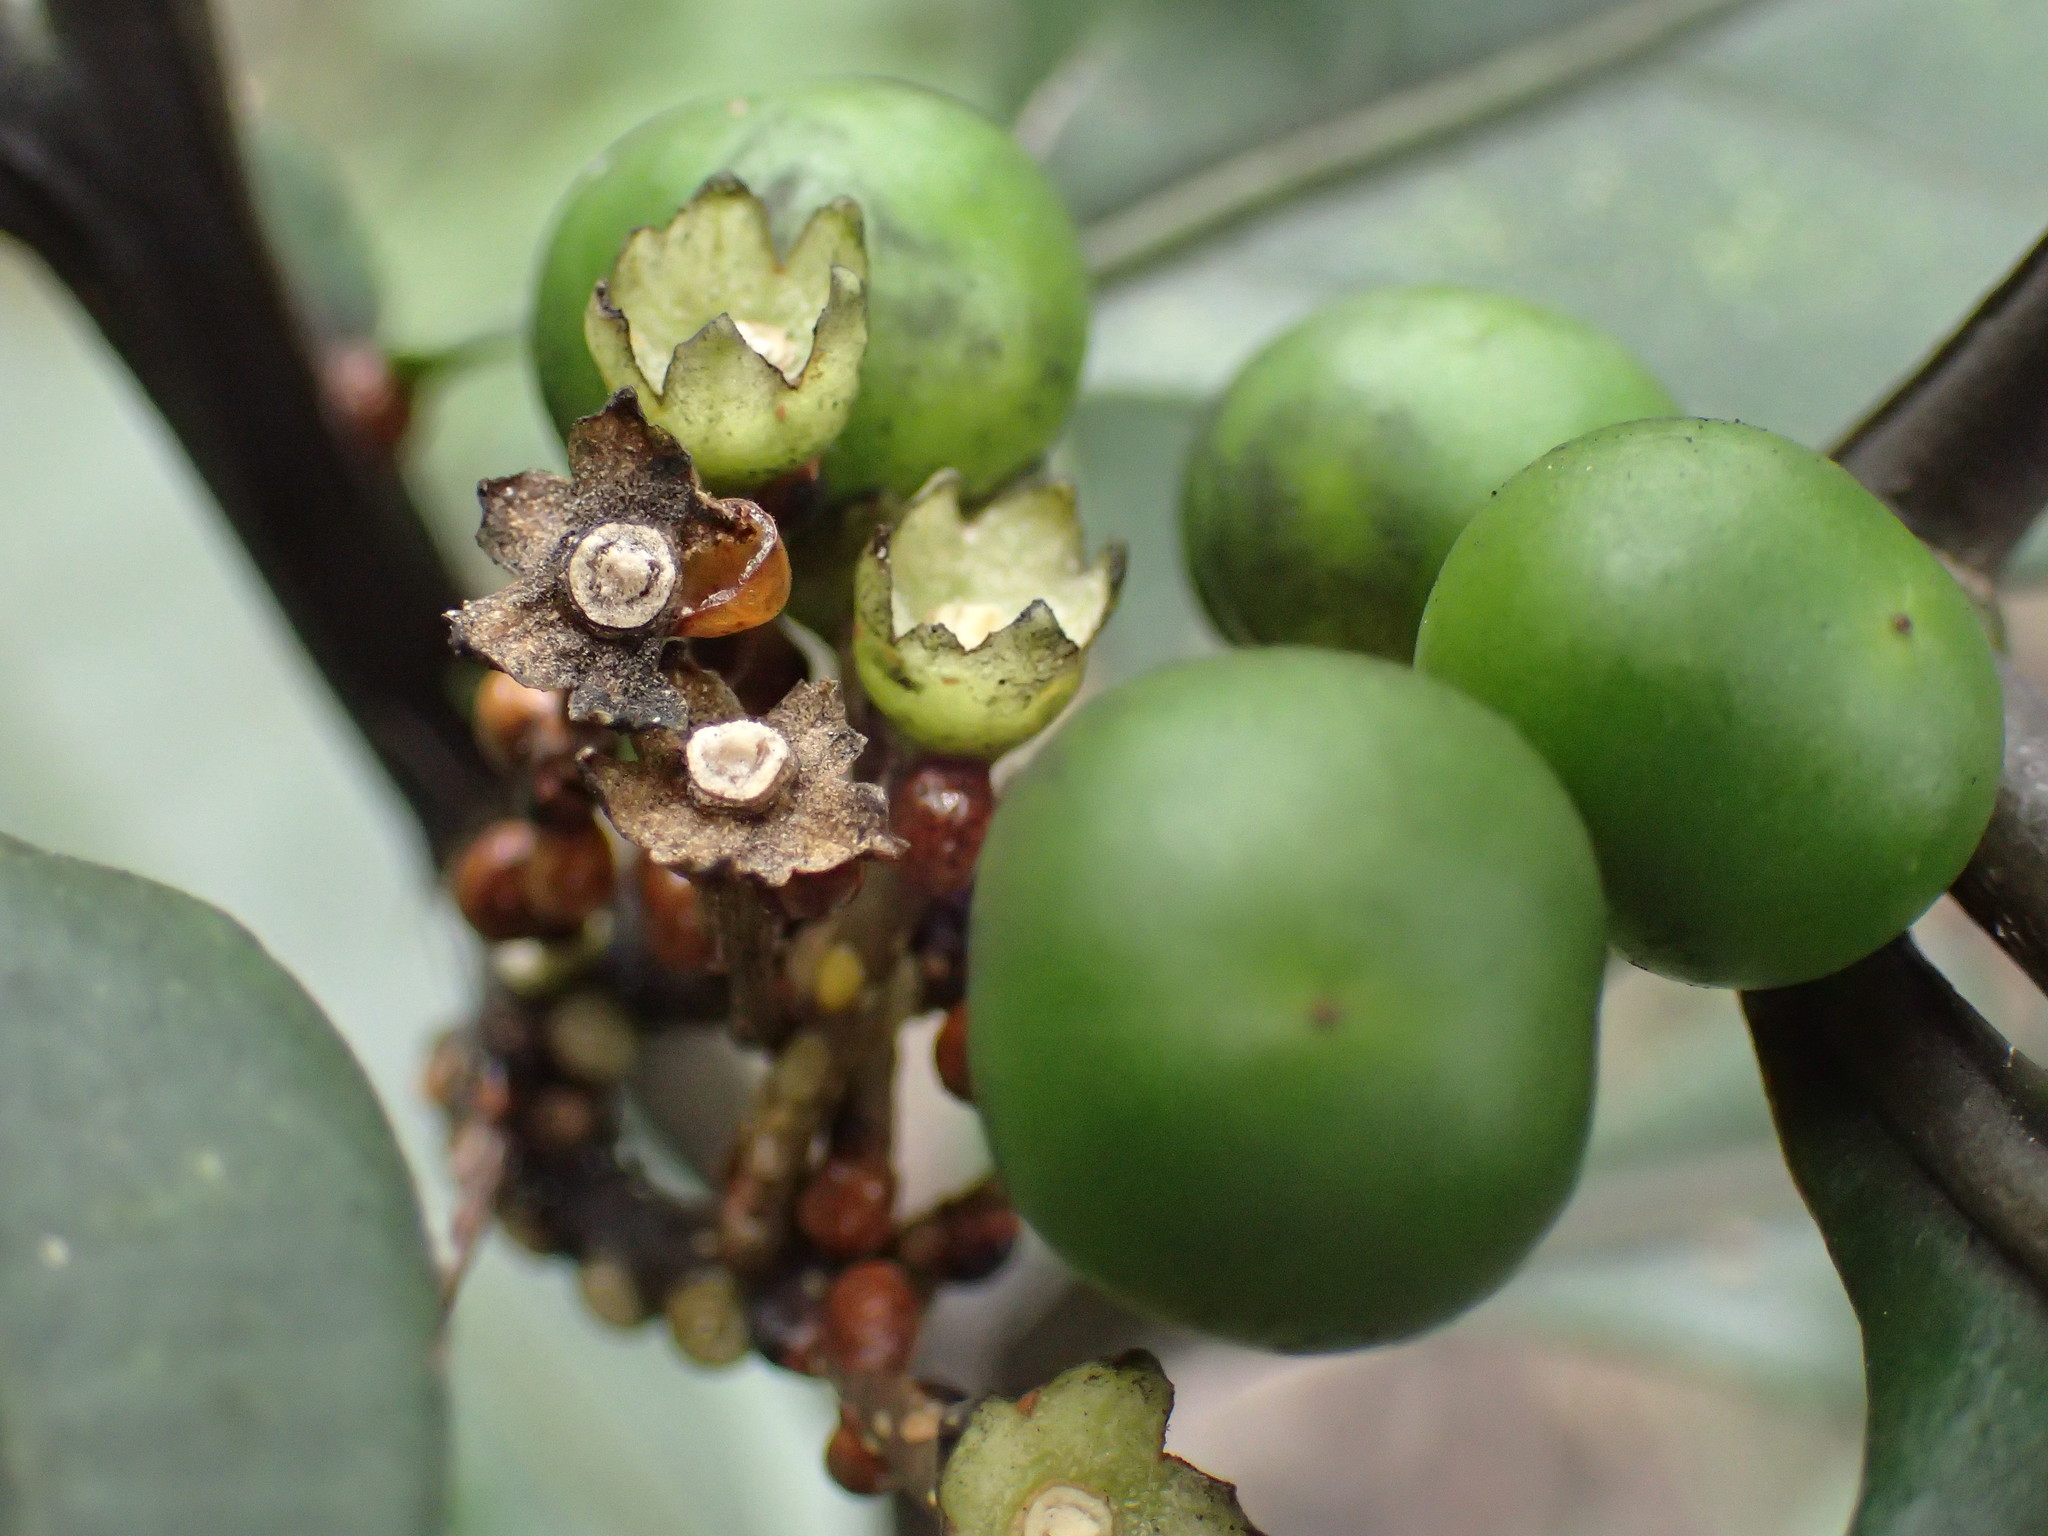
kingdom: Plantae
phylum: Tracheophyta
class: Magnoliopsida
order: Solanales
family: Solanaceae
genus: Solanum
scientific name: Solanum diphyllum
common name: Twoleaf nightshade
